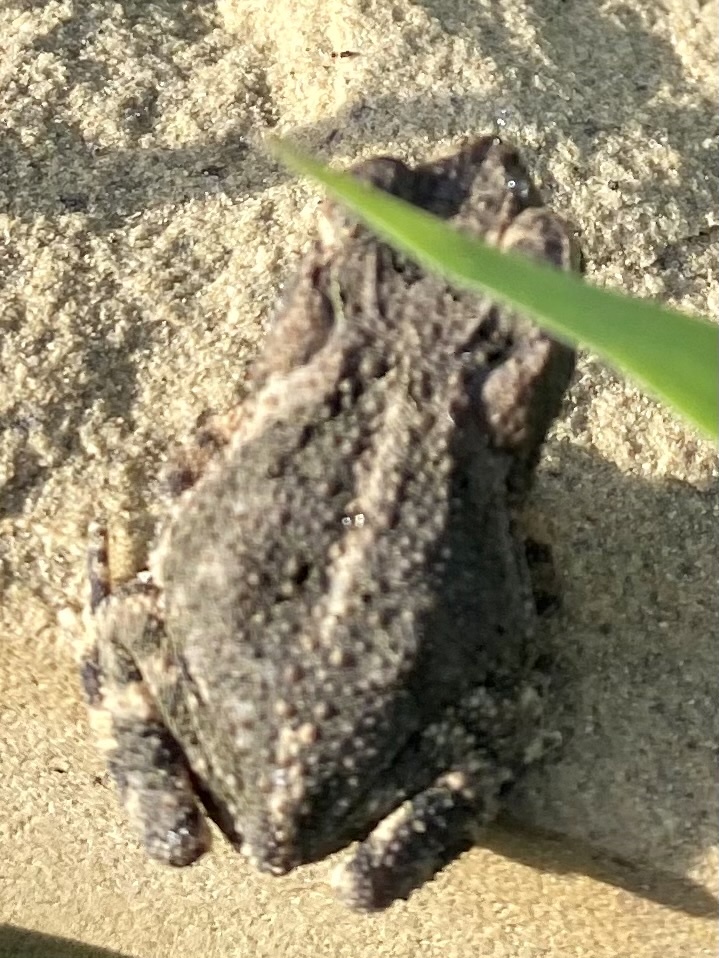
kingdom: Animalia
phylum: Chordata
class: Amphibia
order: Anura
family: Bufonidae
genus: Incilius
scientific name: Incilius nebulifer
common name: Gulf coast toad
